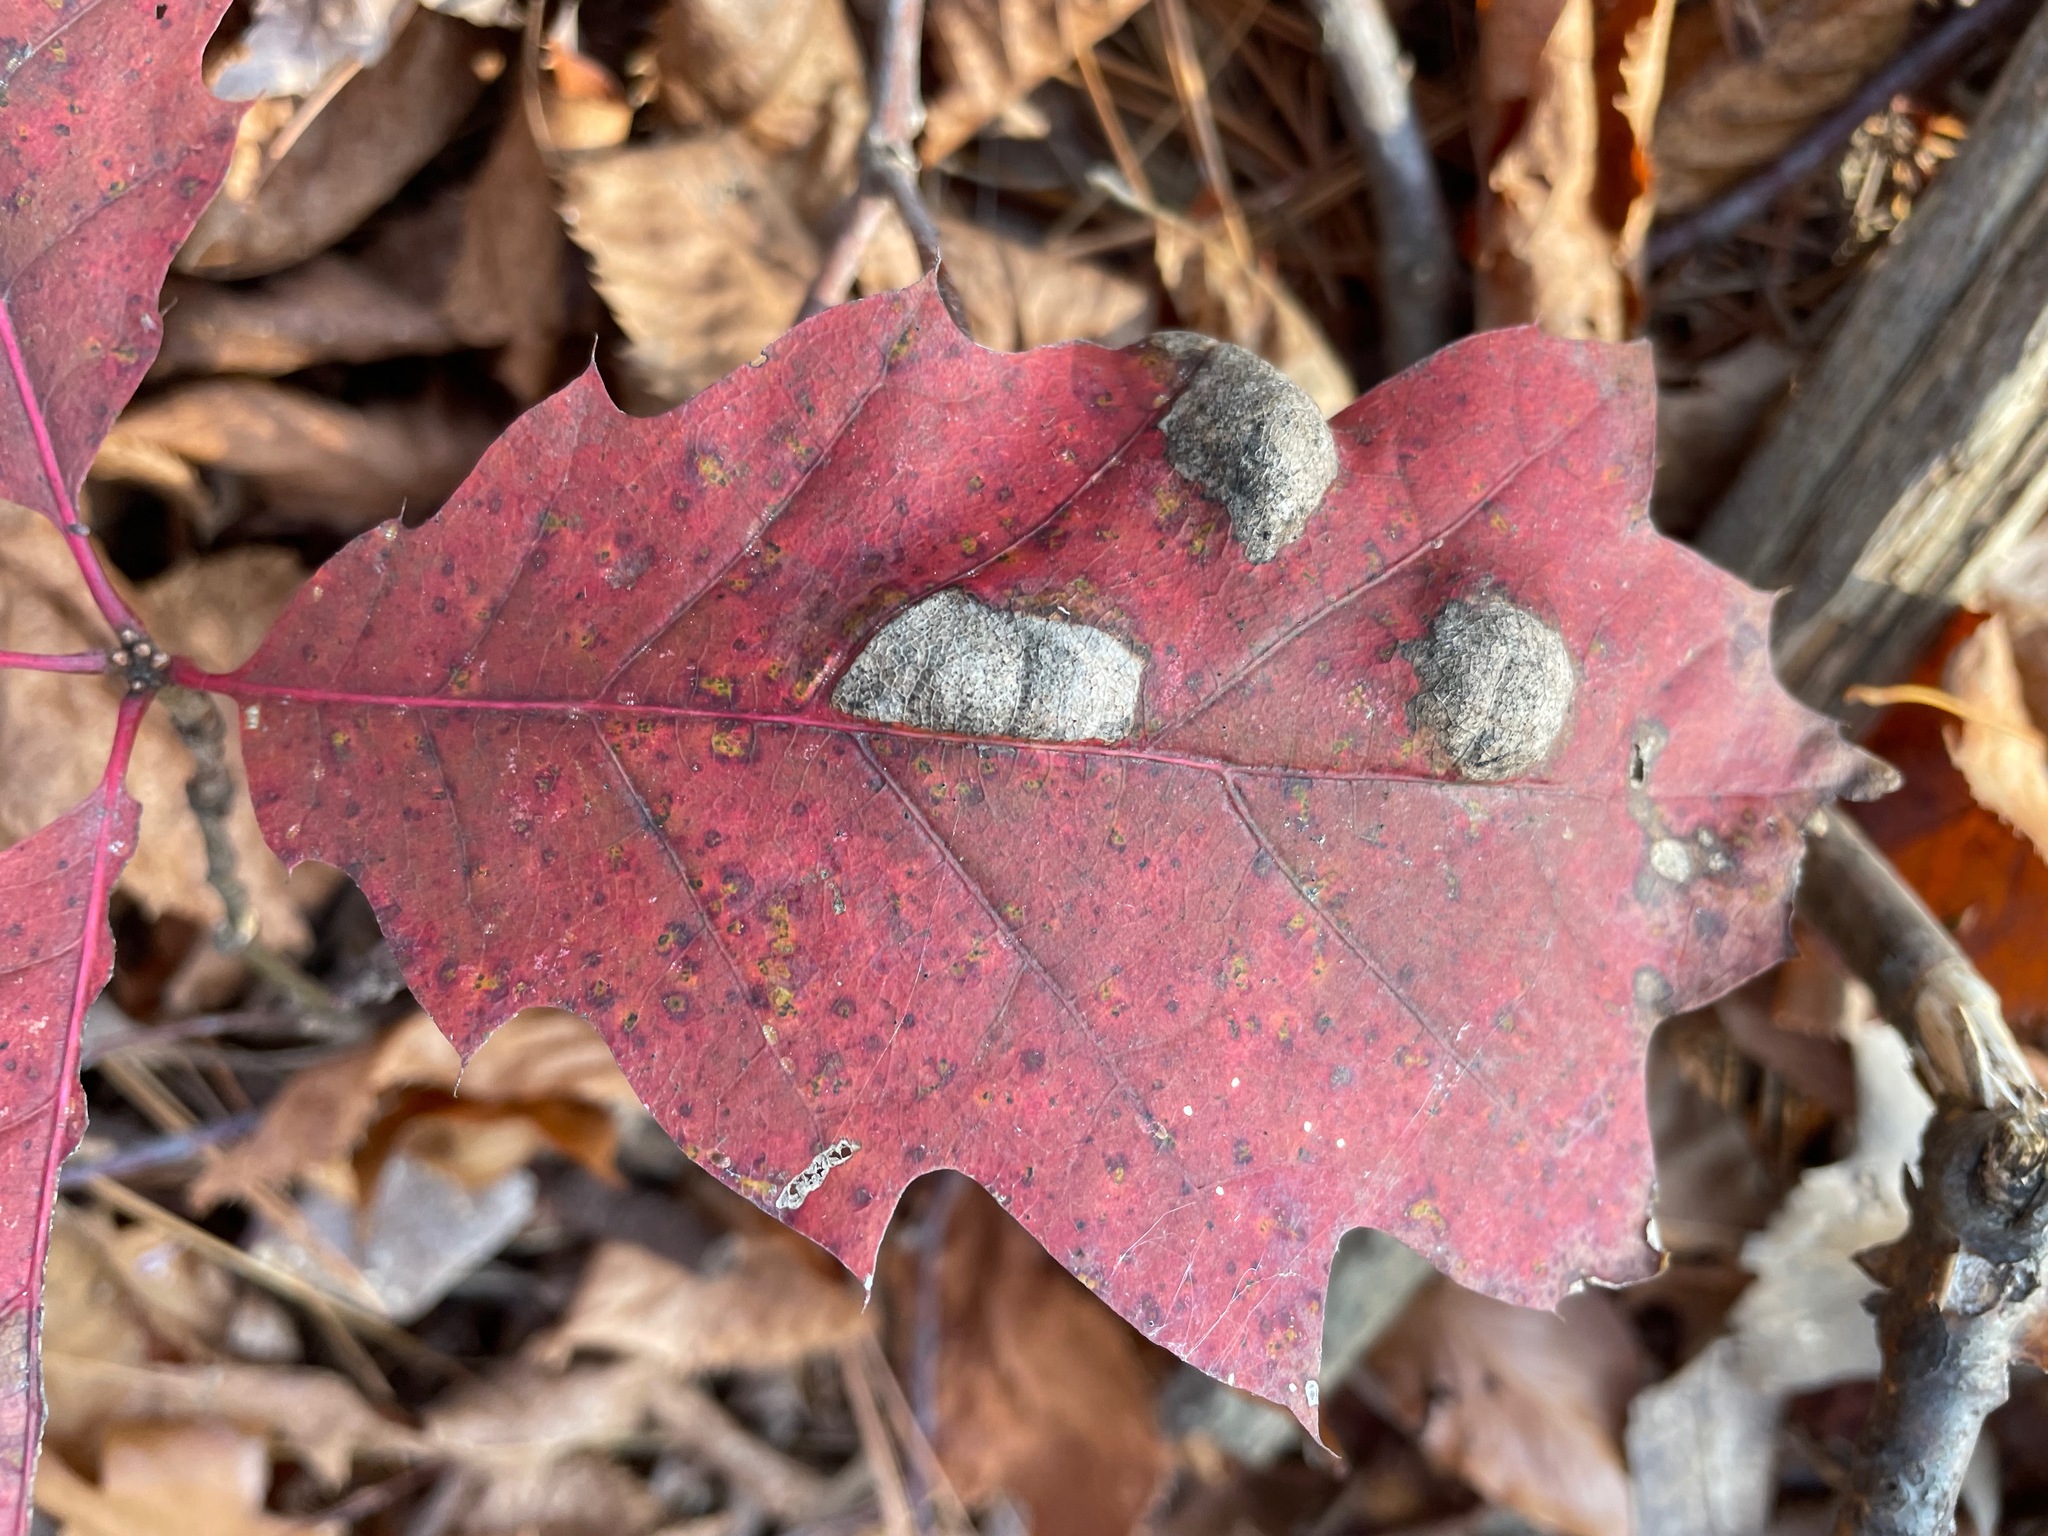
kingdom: Fungi
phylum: Ascomycota
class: Taphrinomycetes
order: Taphrinales
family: Taphrinaceae
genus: Taphrina
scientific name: Taphrina caerulescens
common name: Oak leaf blister
